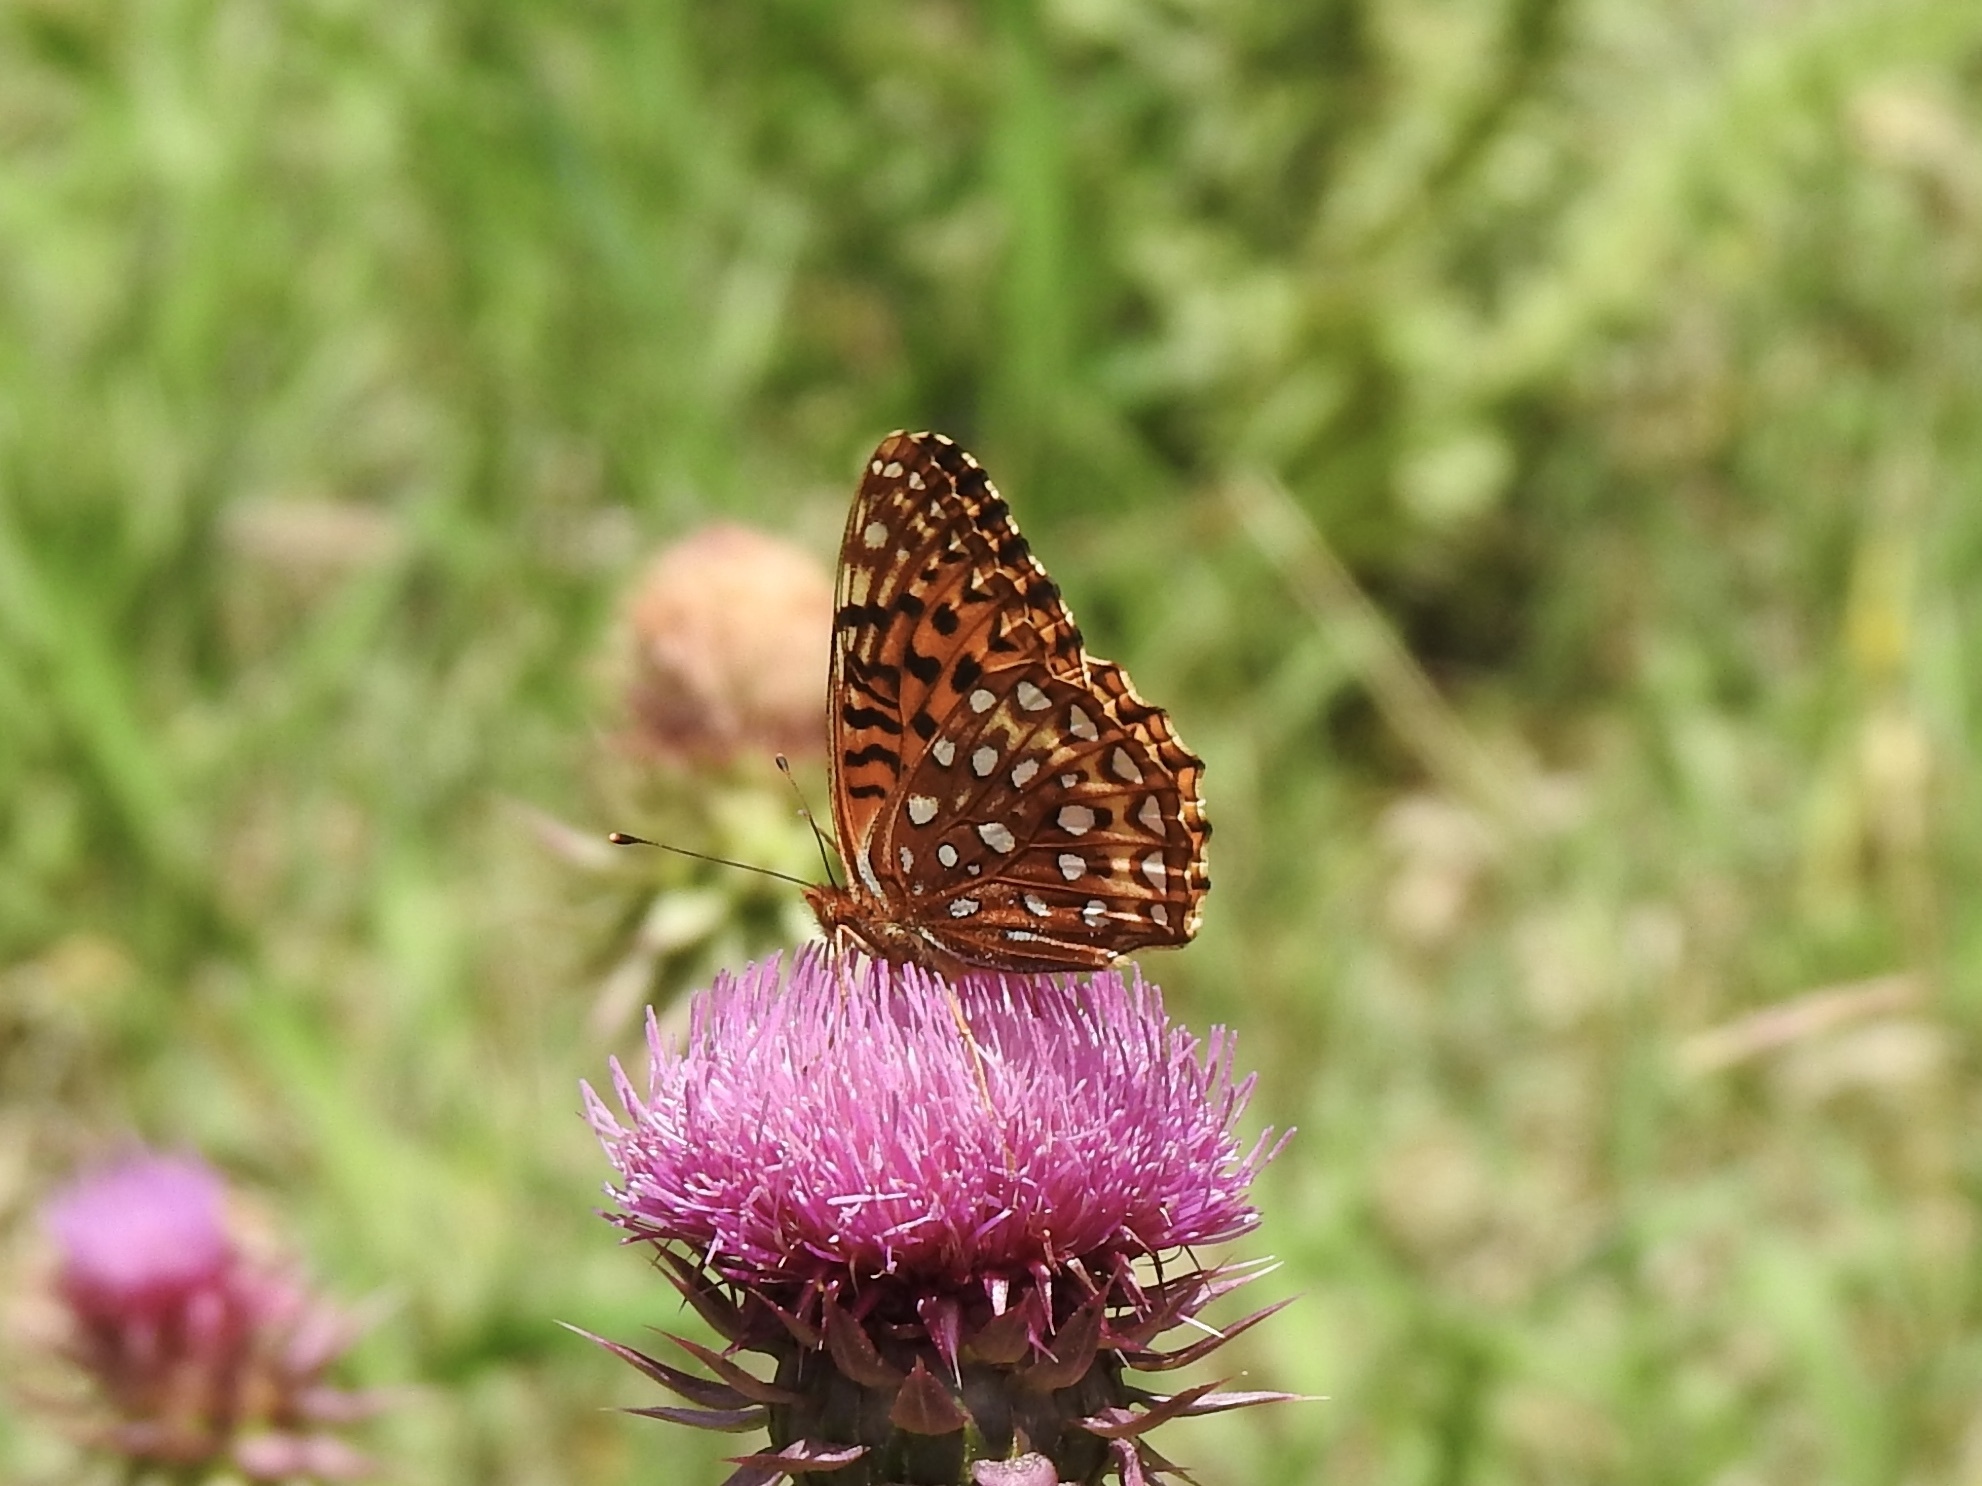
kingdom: Animalia
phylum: Arthropoda
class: Insecta
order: Lepidoptera
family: Nymphalidae
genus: Speyeria
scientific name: Speyeria atlantis
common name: Atlantis fritillary
